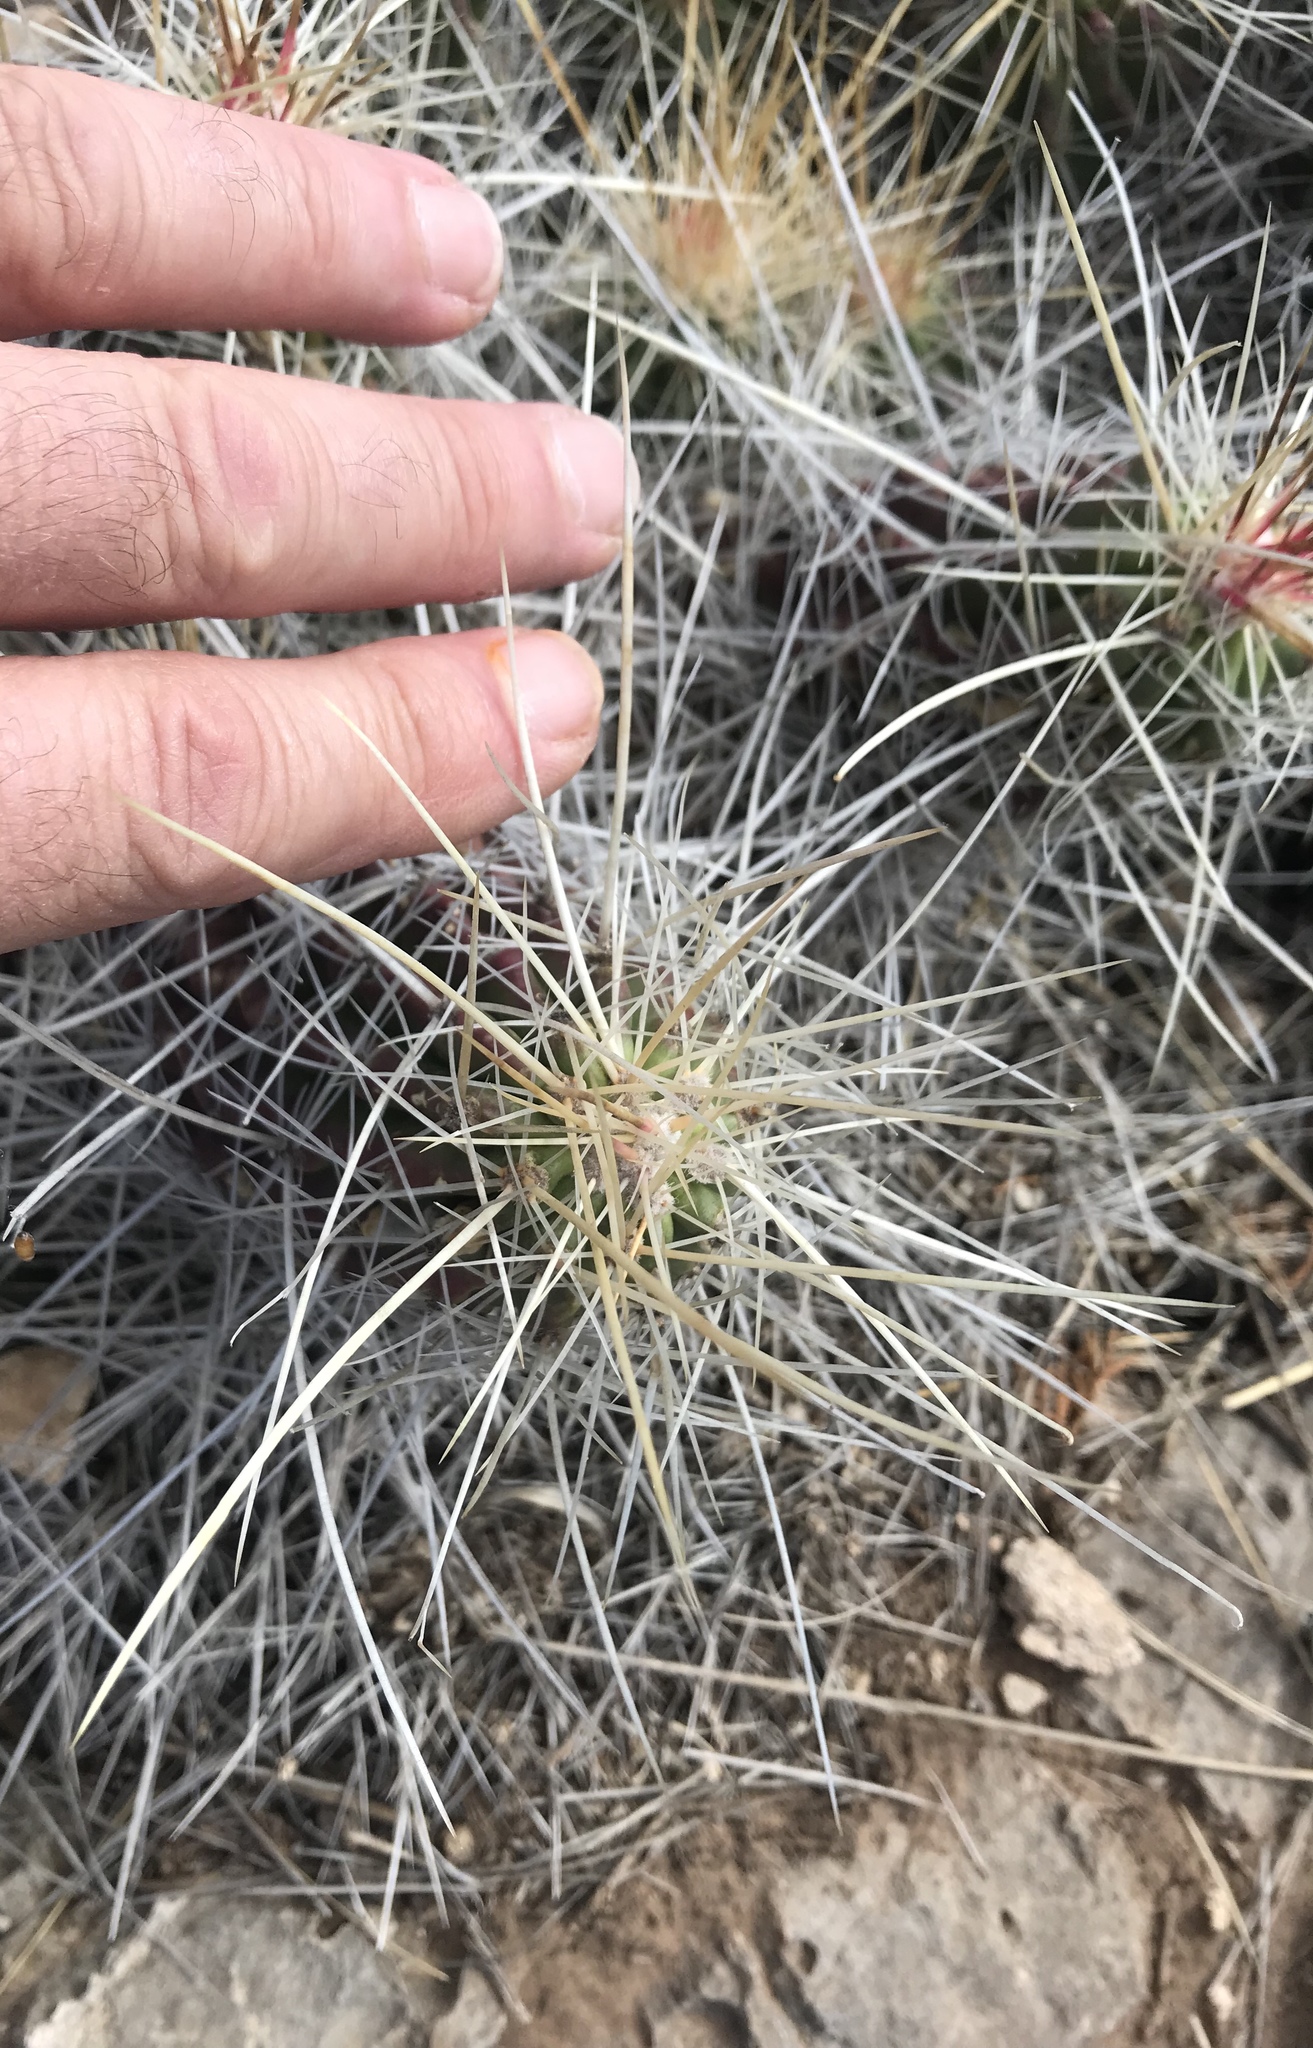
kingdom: Plantae
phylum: Tracheophyta
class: Magnoliopsida
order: Caryophyllales
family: Cactaceae
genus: Echinocereus
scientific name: Echinocereus stramineus
